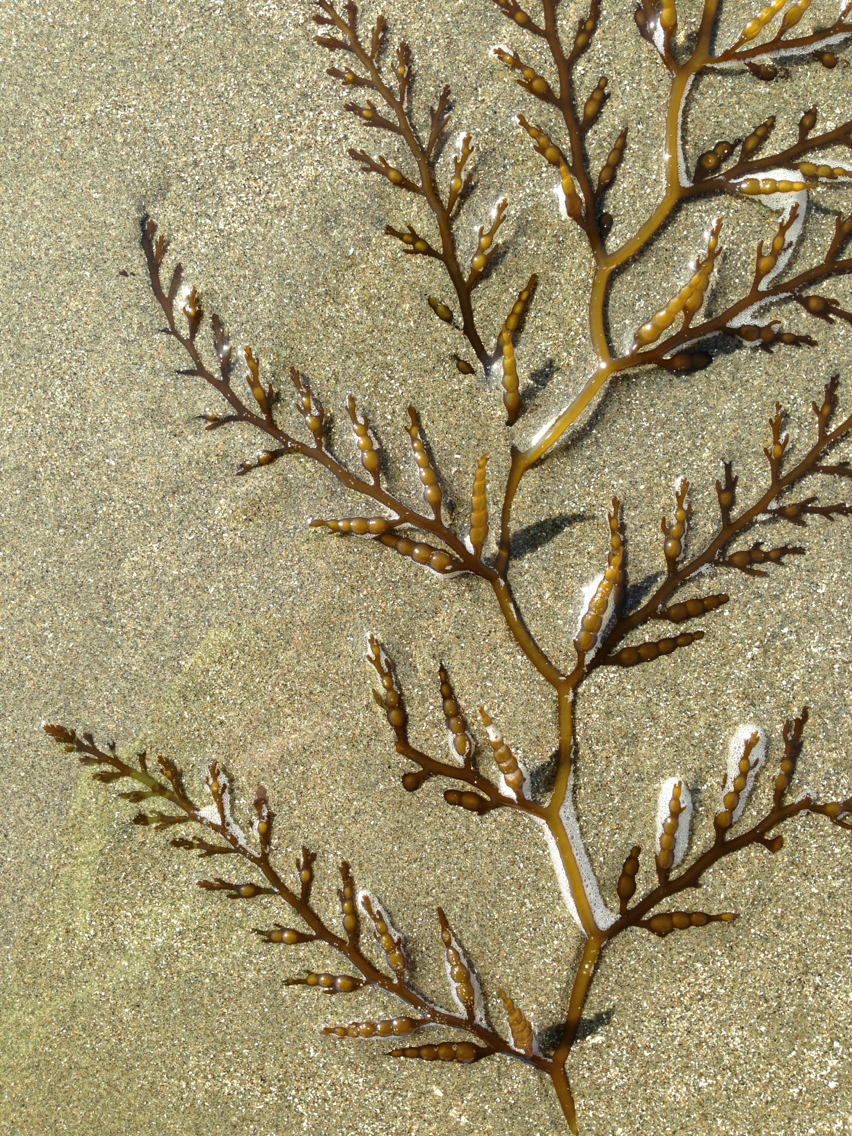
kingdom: Chromista
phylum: Ochrophyta
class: Phaeophyceae
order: Fucales
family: Sargassaceae
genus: Stephanocystis
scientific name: Stephanocystis
